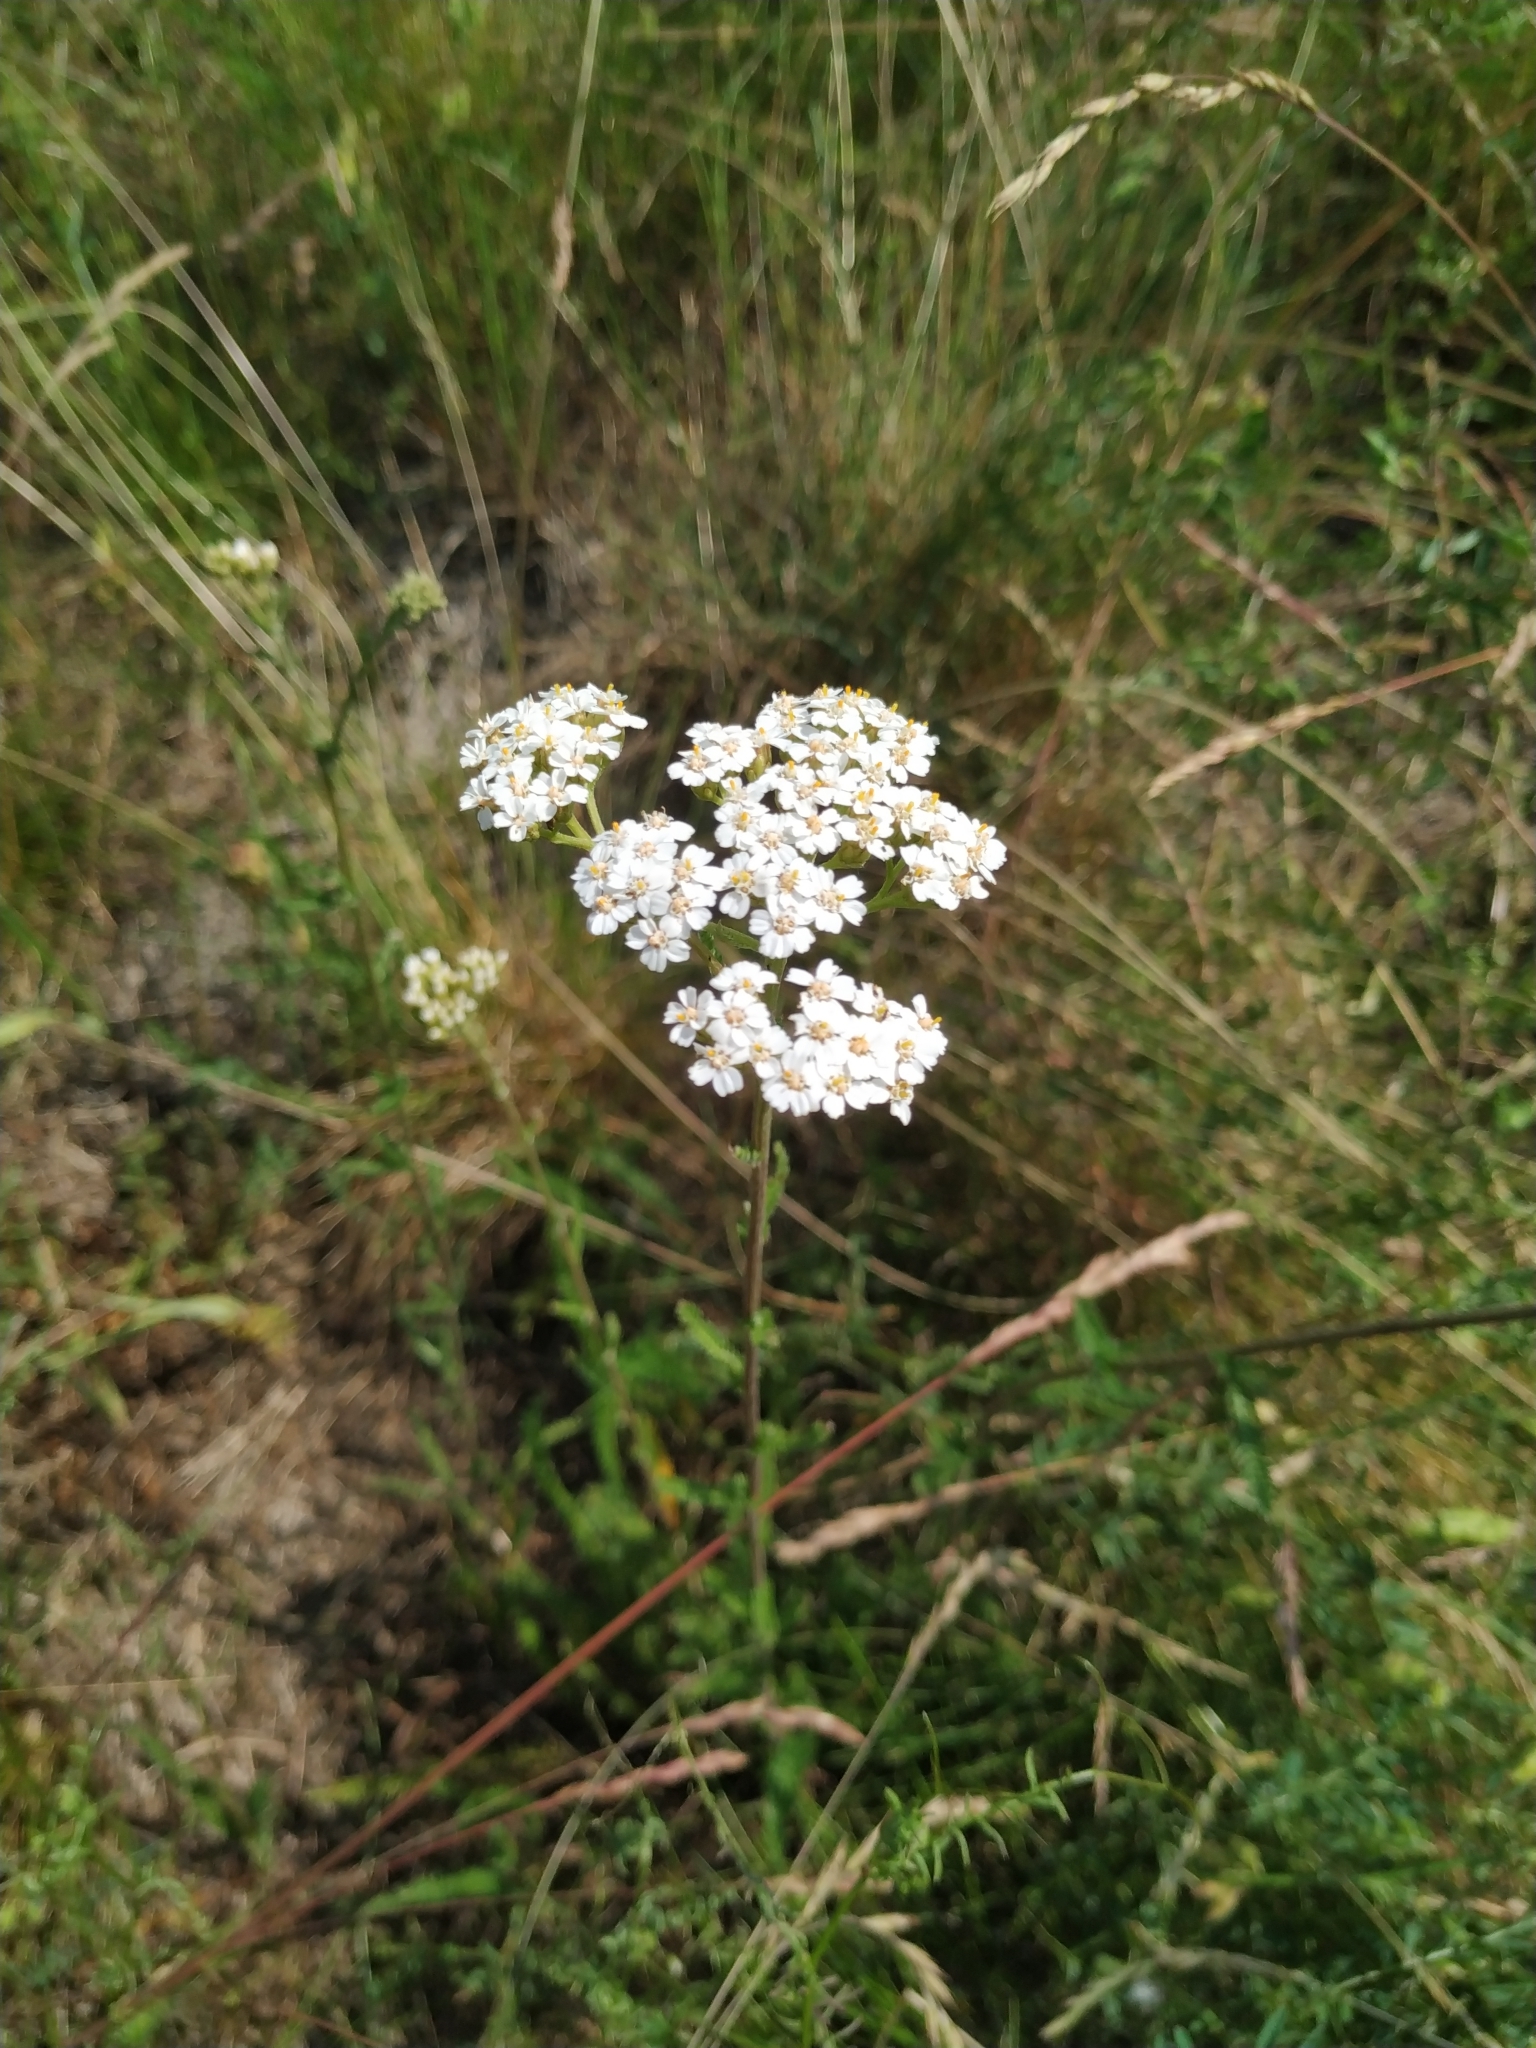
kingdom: Plantae
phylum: Tracheophyta
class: Magnoliopsida
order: Asterales
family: Asteraceae
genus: Achillea
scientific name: Achillea millefolium
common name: Yarrow
